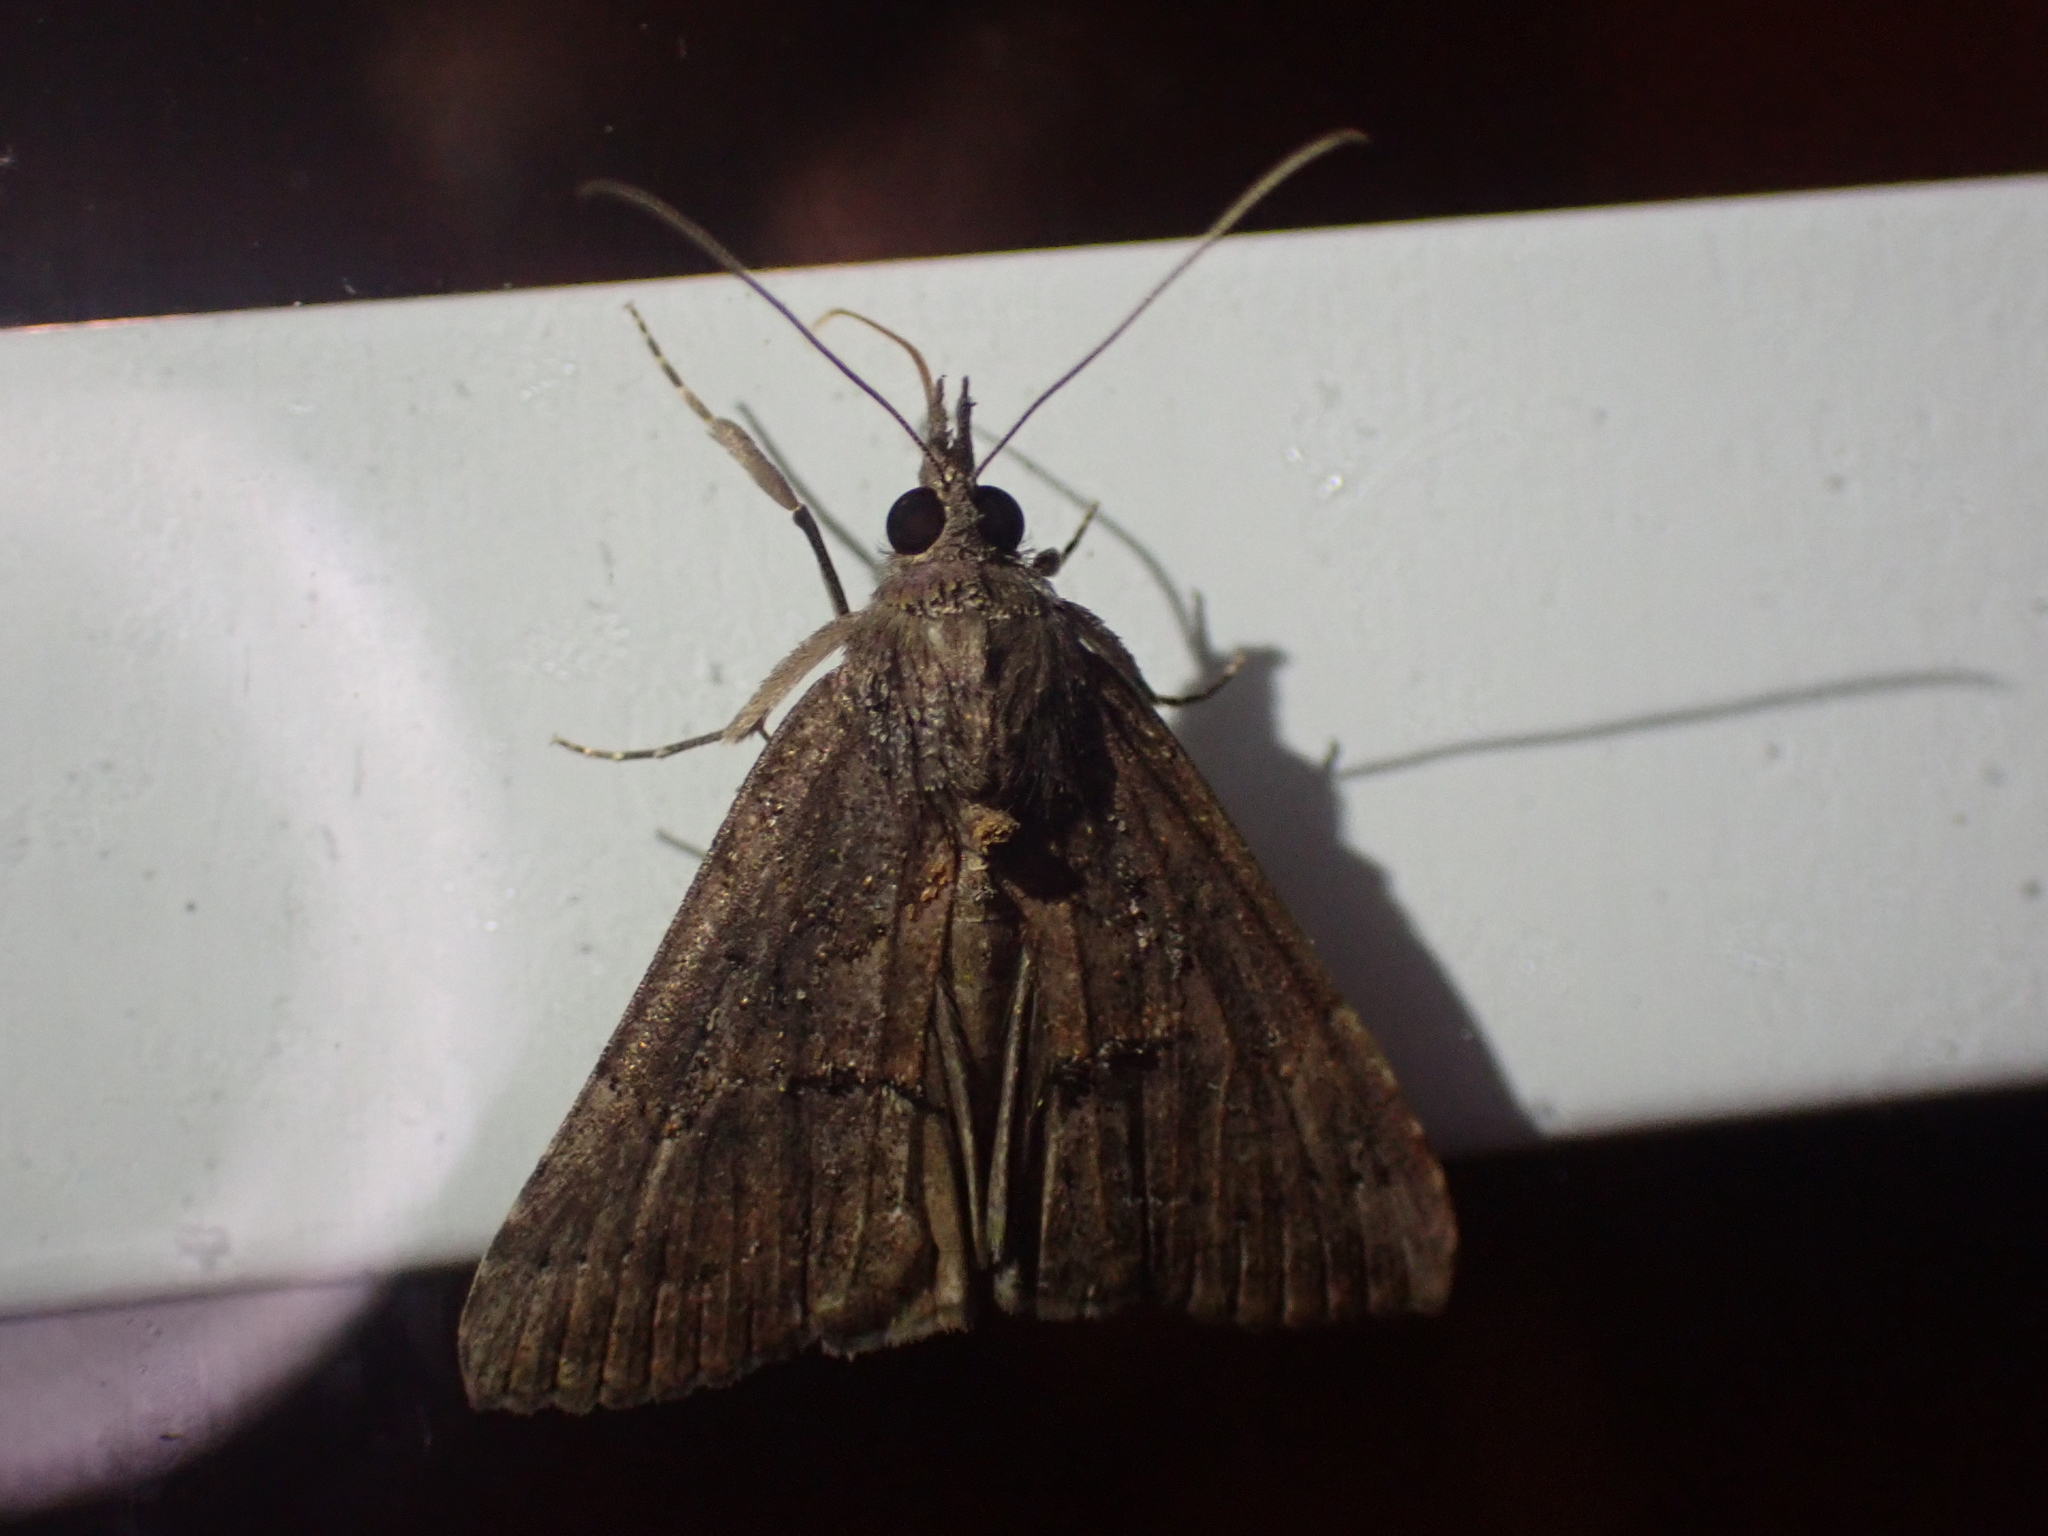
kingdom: Animalia
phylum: Arthropoda
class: Insecta
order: Lepidoptera
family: Erebidae
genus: Hypena
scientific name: Hypena scabra
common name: Green cloverworm
